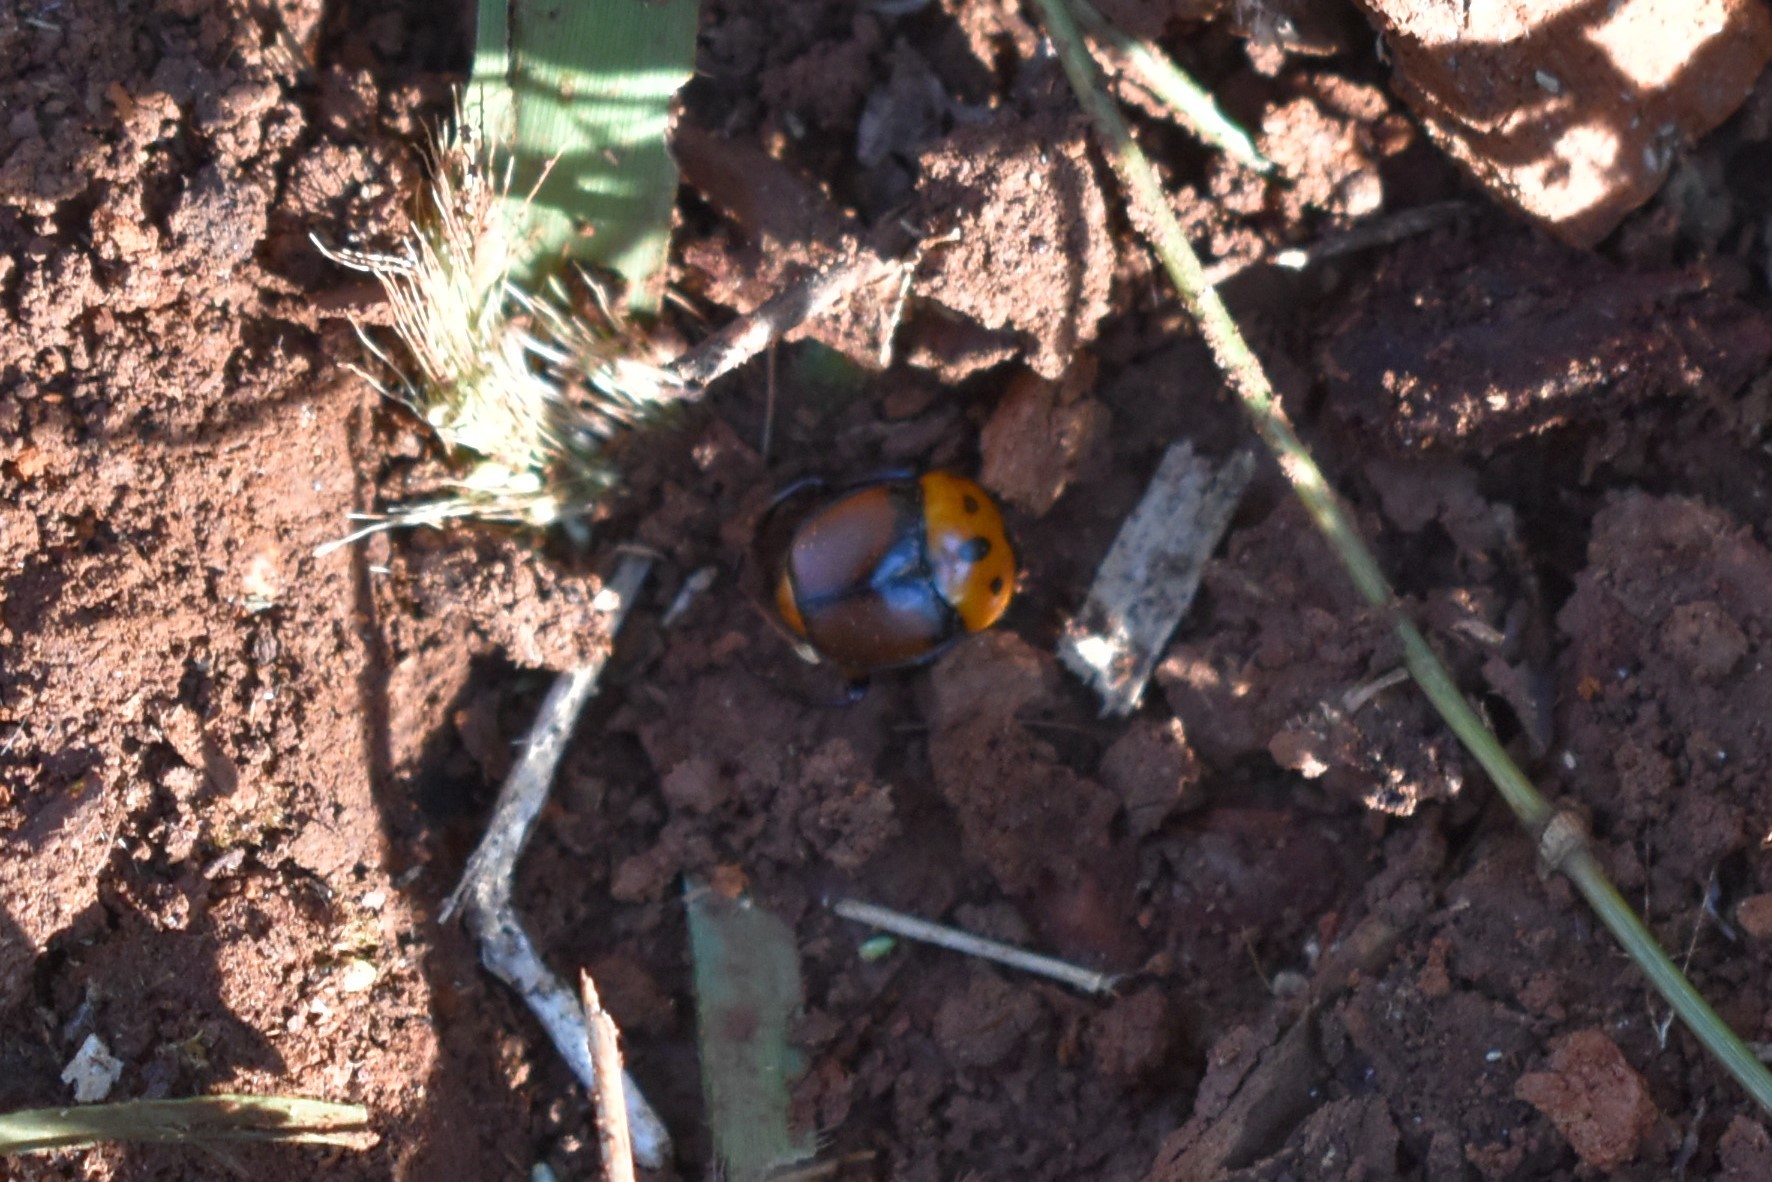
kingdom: Animalia
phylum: Arthropoda
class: Insecta
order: Coleoptera
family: Scarabaeidae
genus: Canthon
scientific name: Canthon quinquemaculatus
